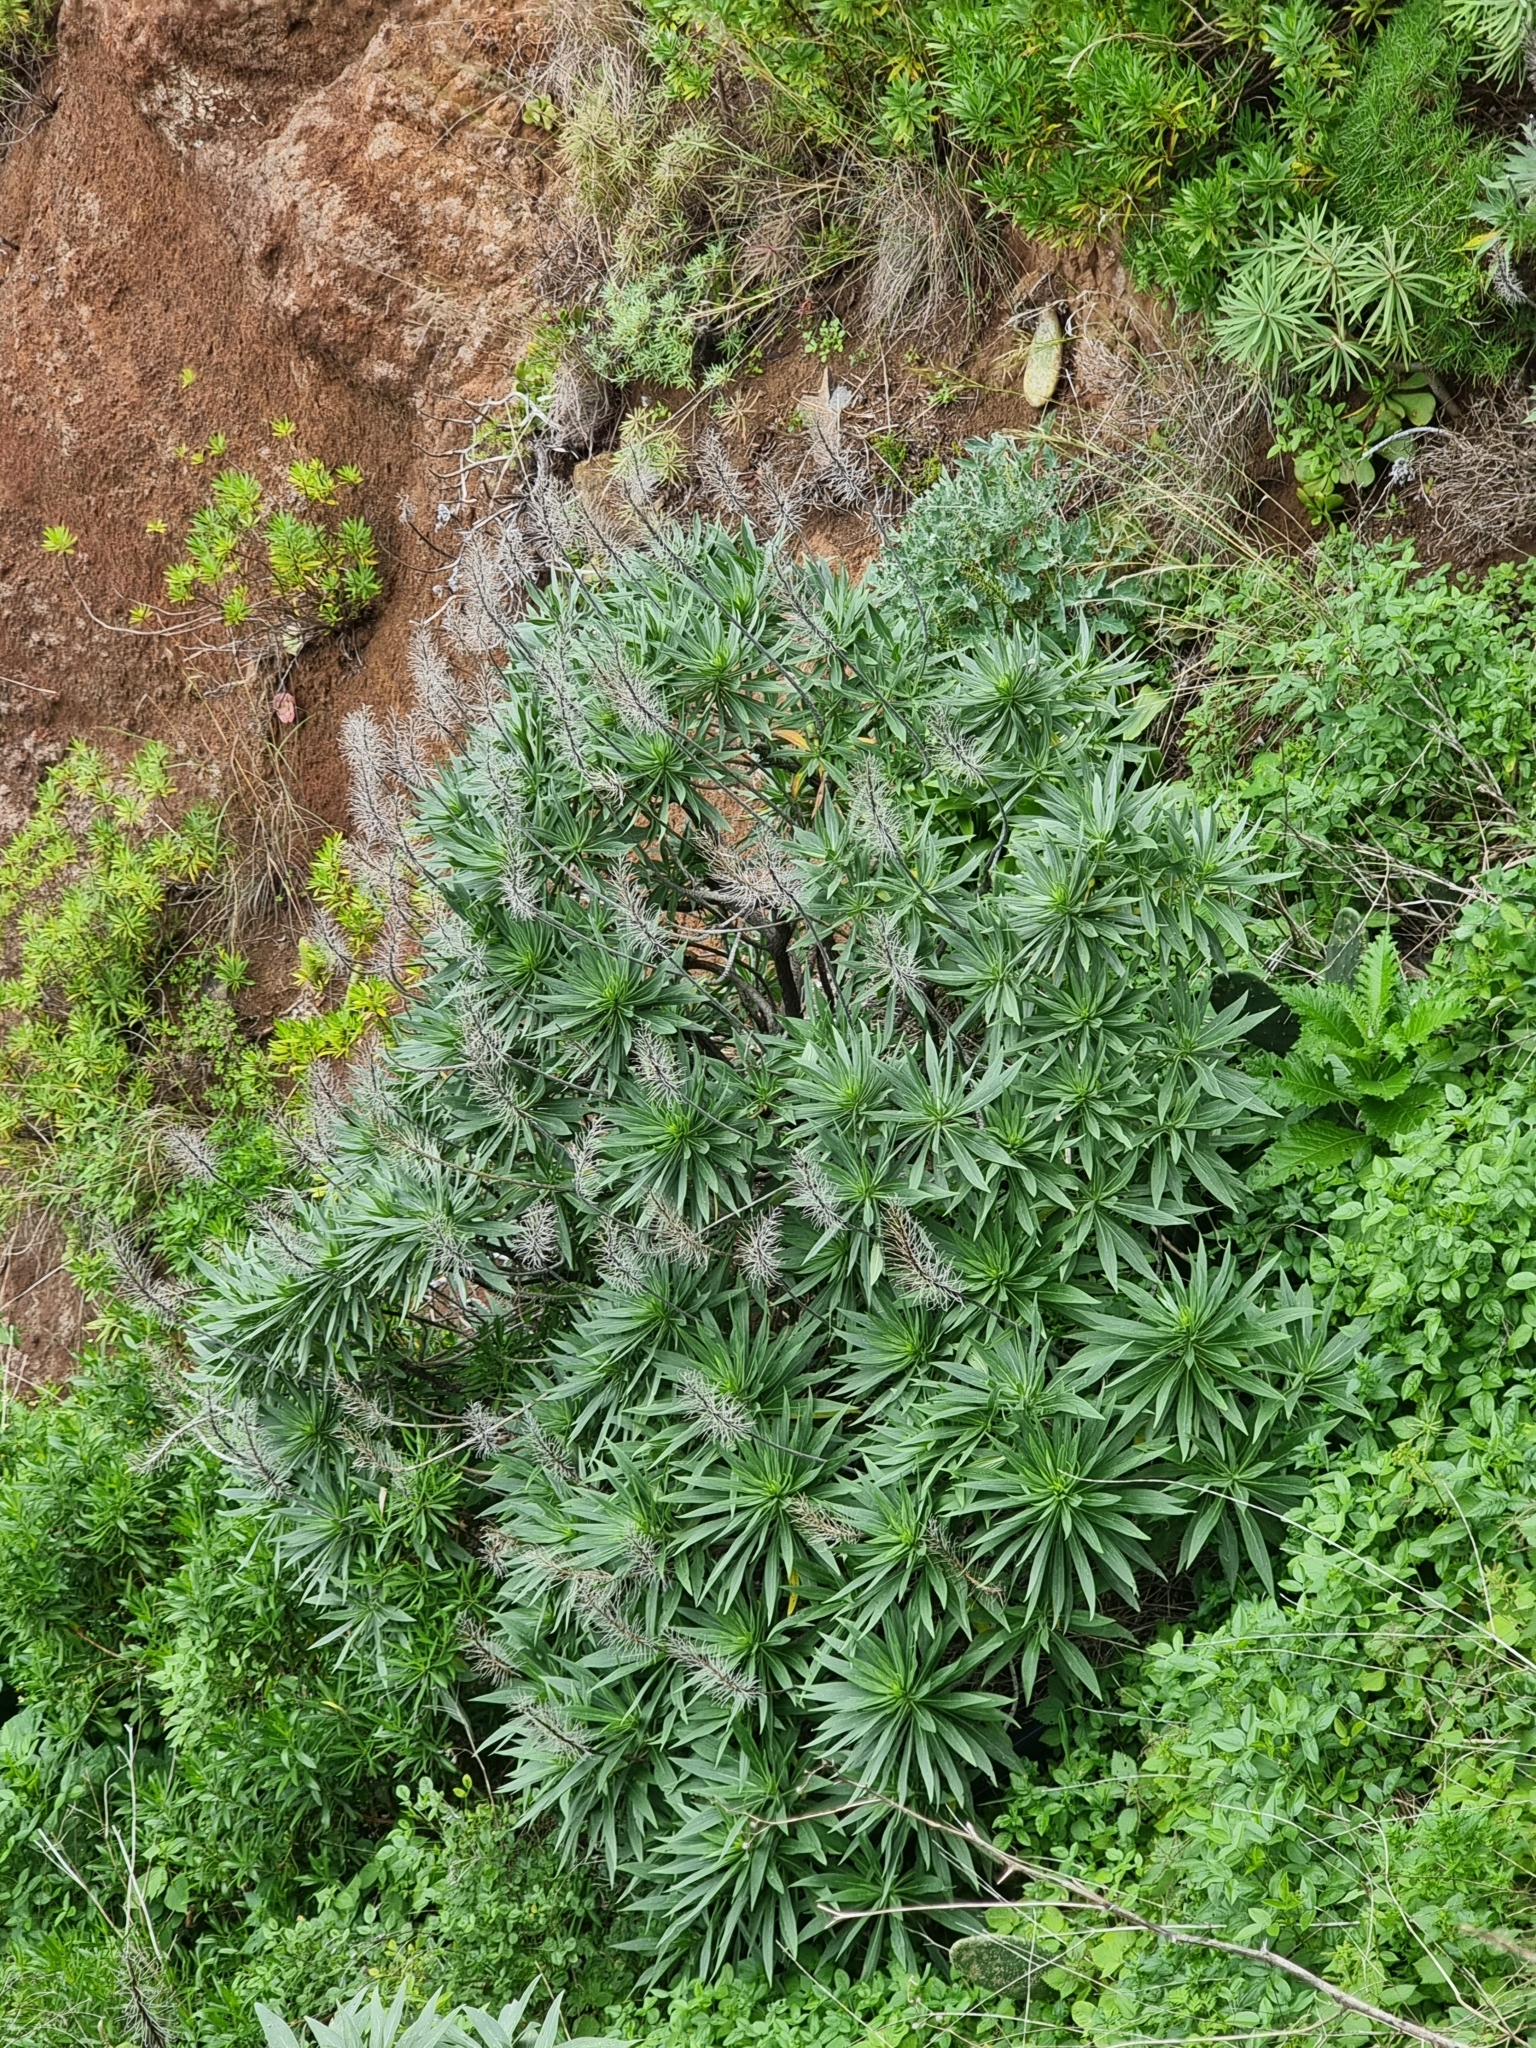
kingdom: Plantae
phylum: Tracheophyta
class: Magnoliopsida
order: Boraginales
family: Boraginaceae
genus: Echium
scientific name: Echium nervosum
